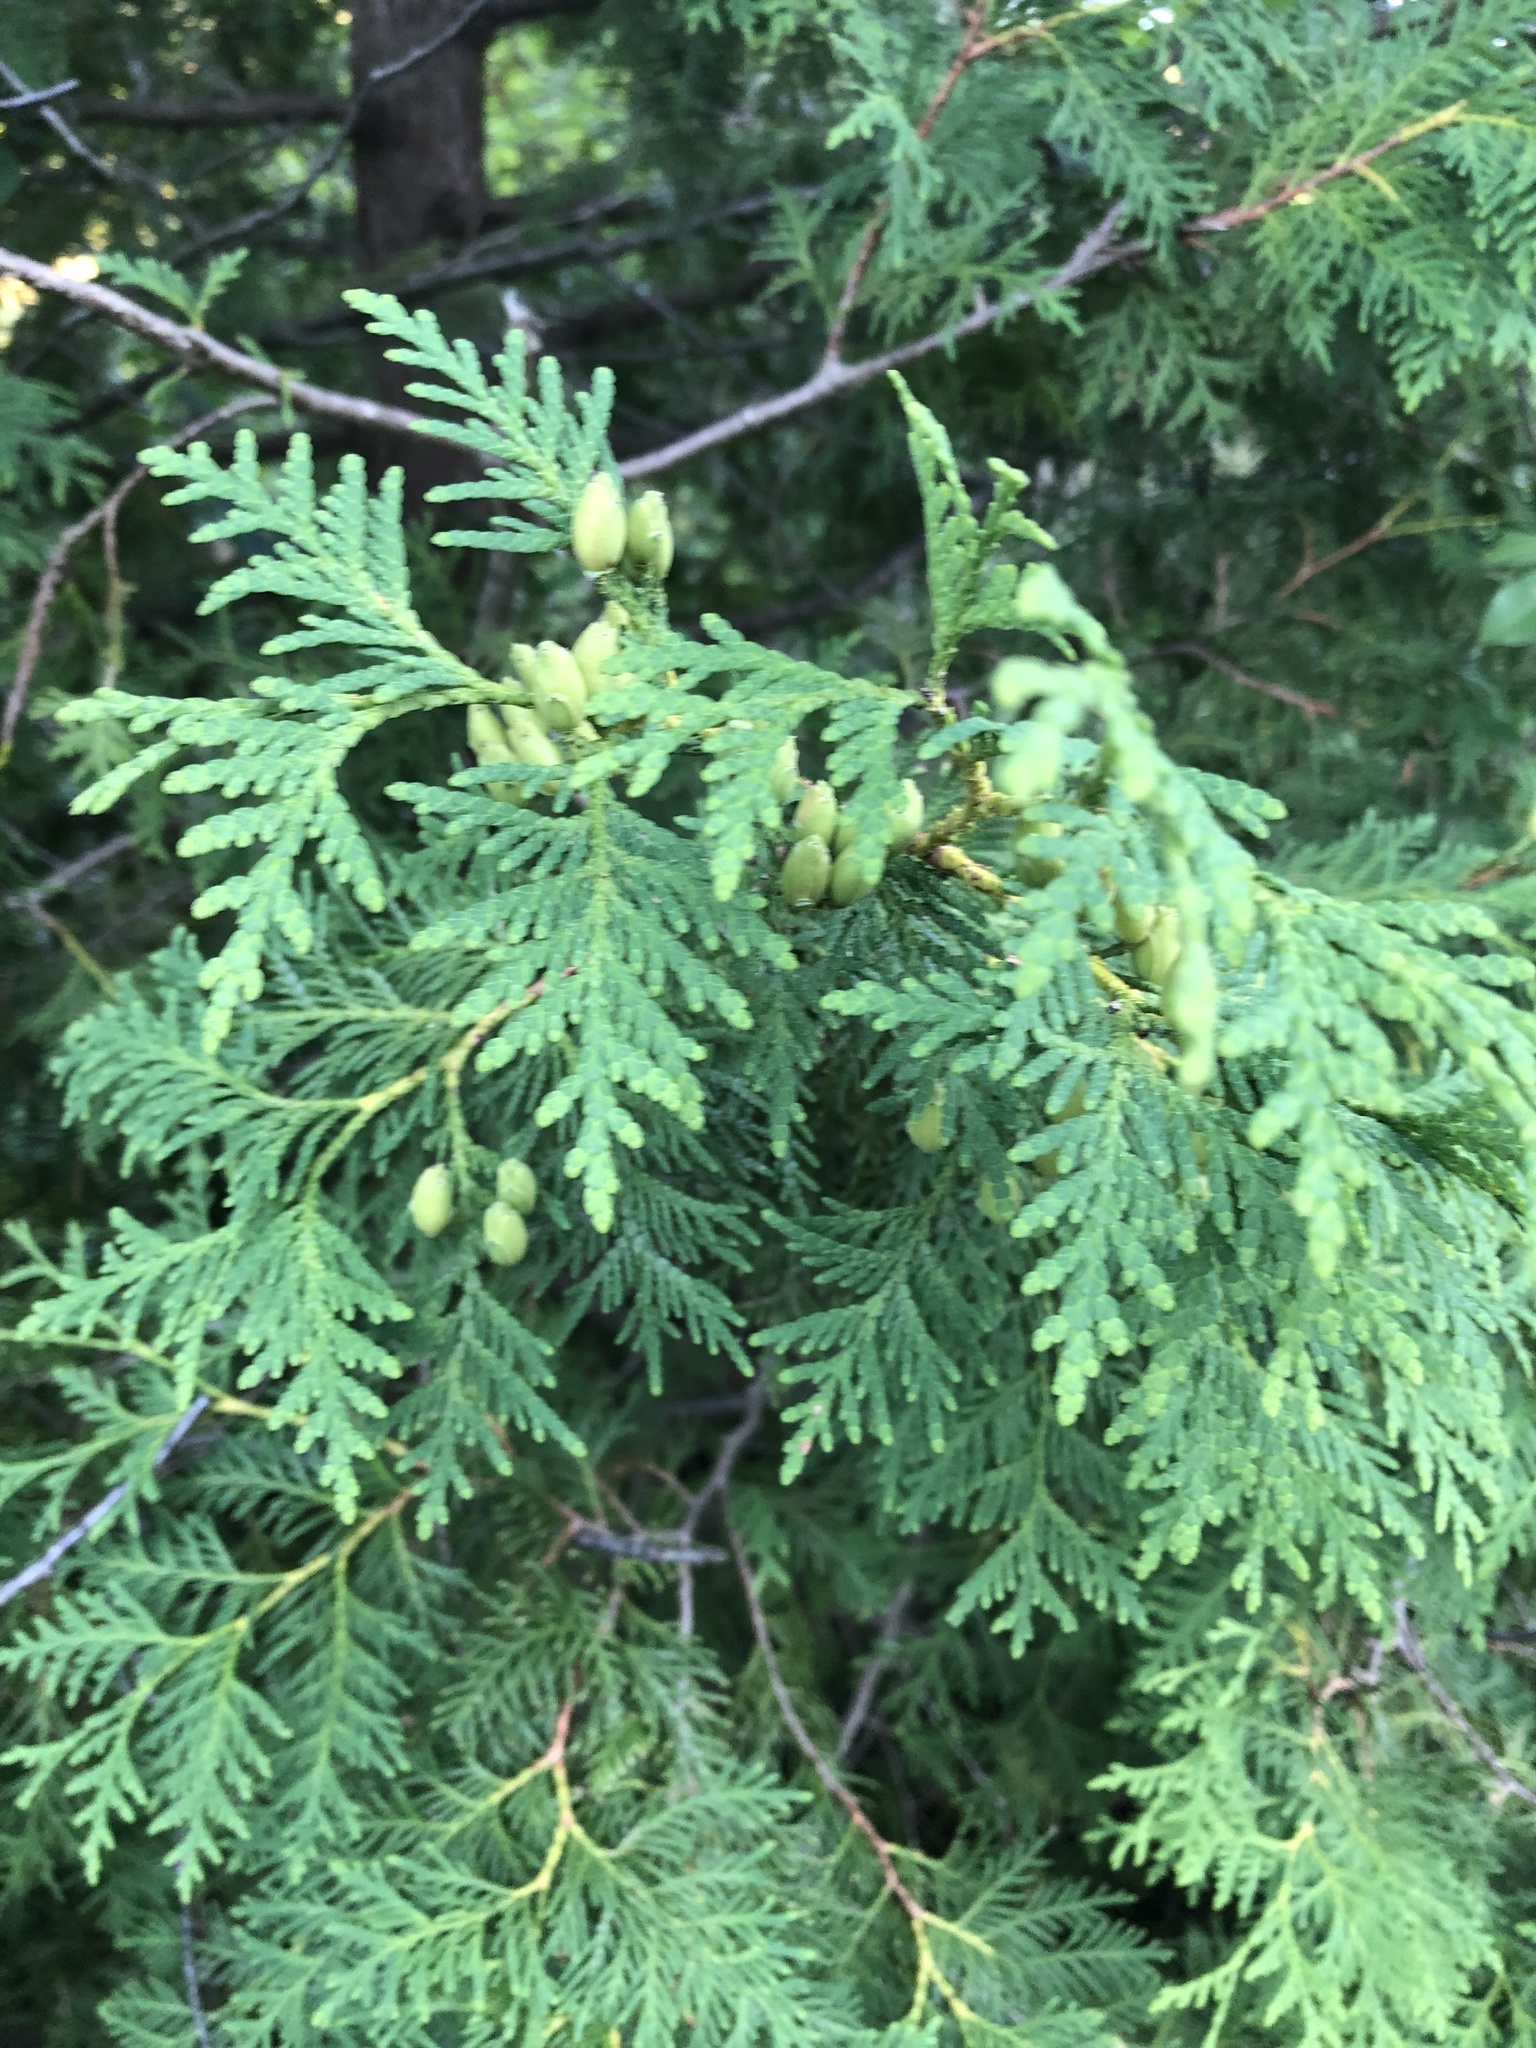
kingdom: Plantae
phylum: Tracheophyta
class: Pinopsida
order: Pinales
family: Cupressaceae
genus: Thuja
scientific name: Thuja occidentalis
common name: Northern white-cedar
